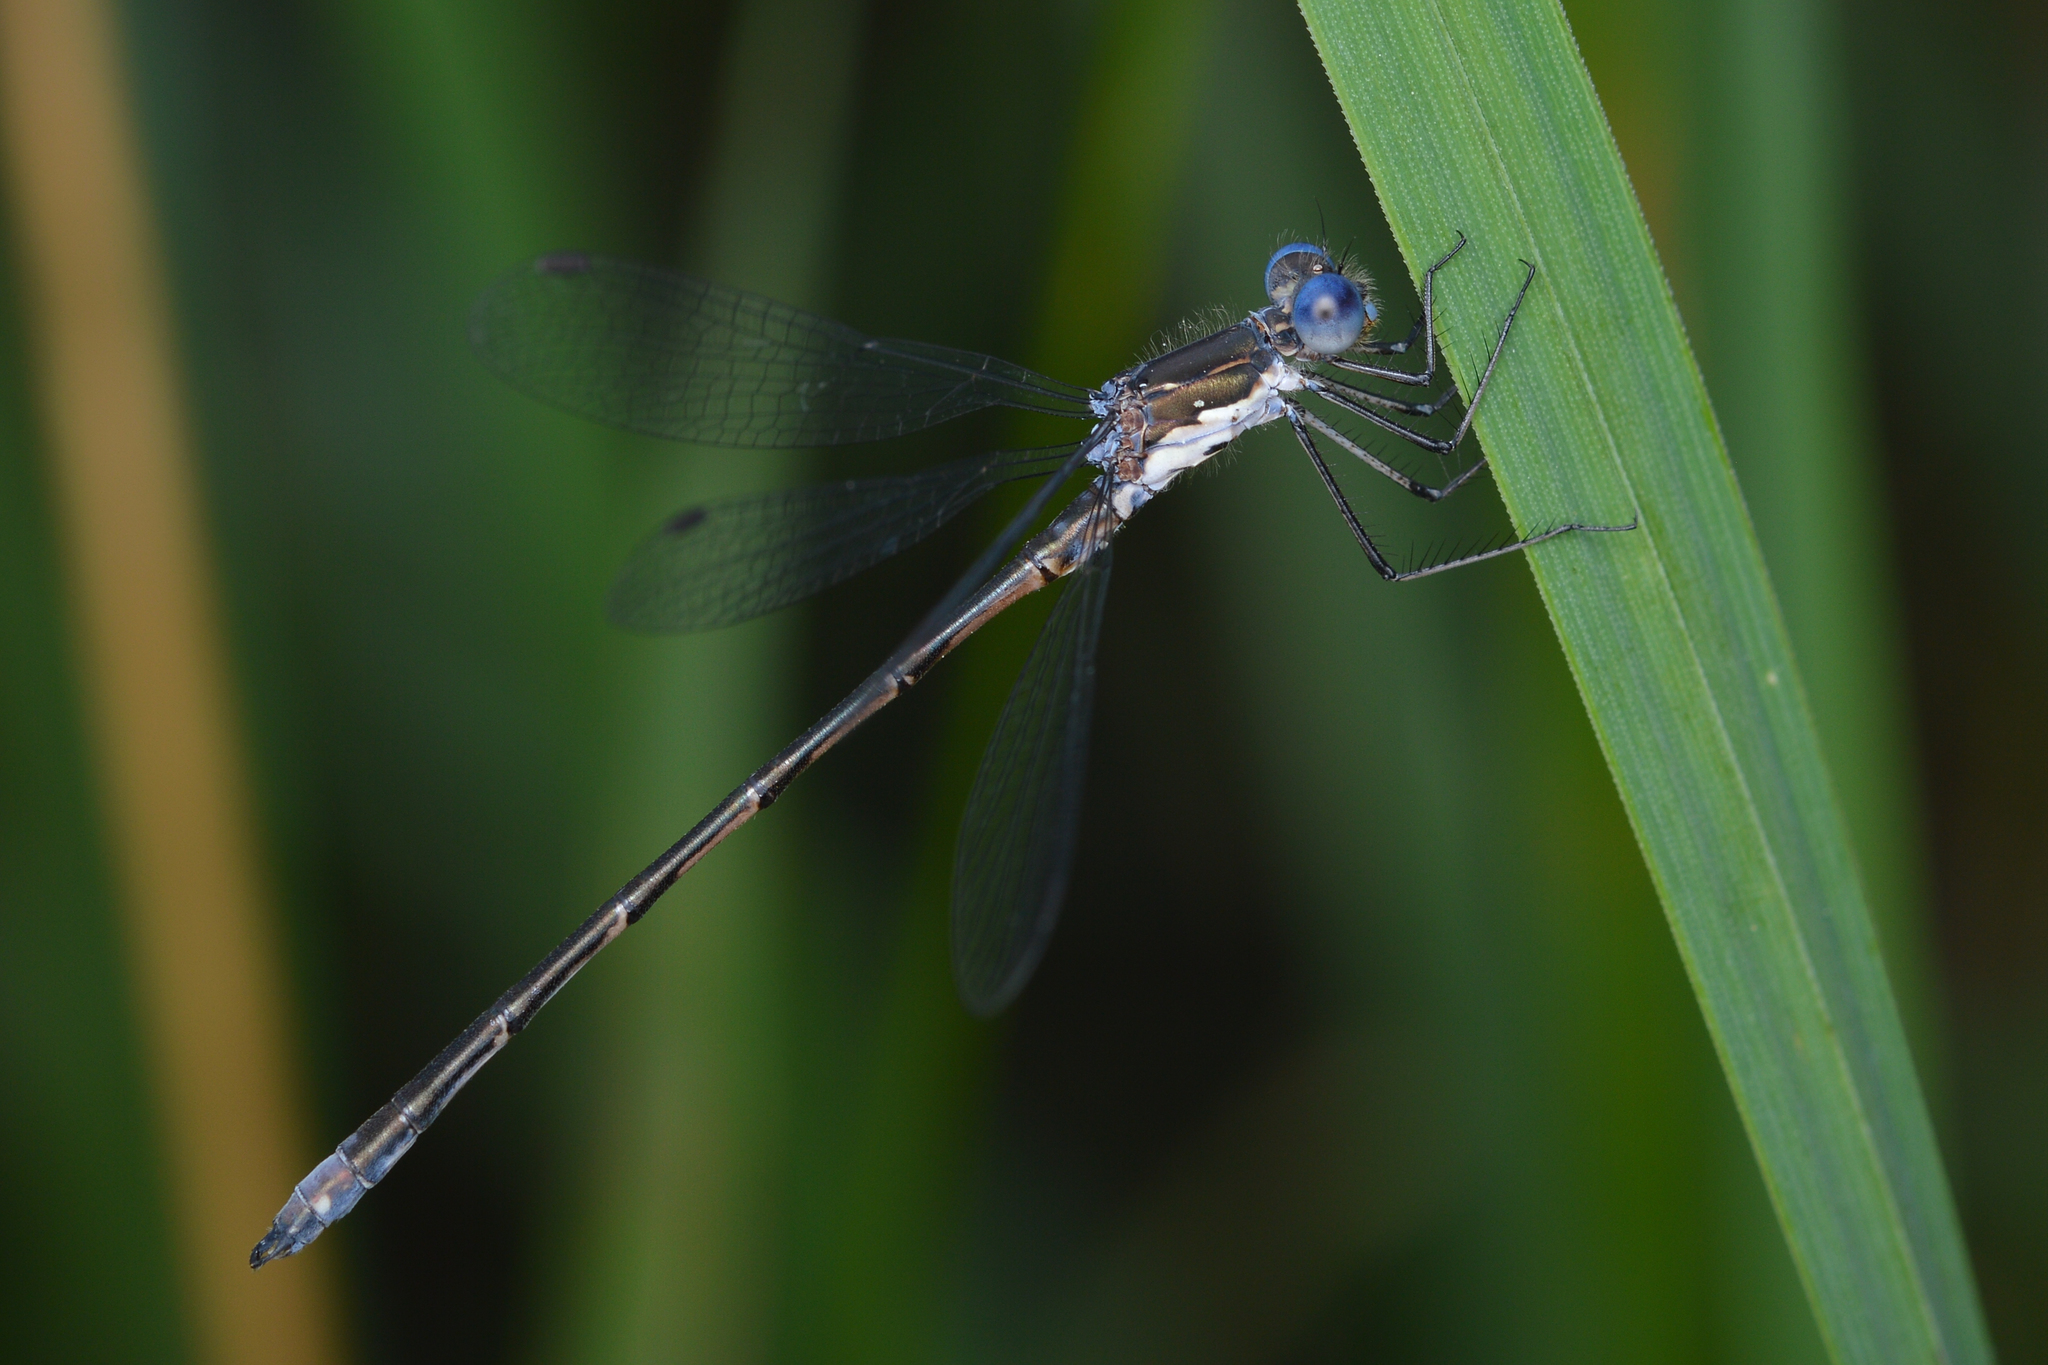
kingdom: Animalia
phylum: Arthropoda
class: Insecta
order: Odonata
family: Lestidae
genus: Lestes
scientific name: Lestes congener
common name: Spotted spreadwing
